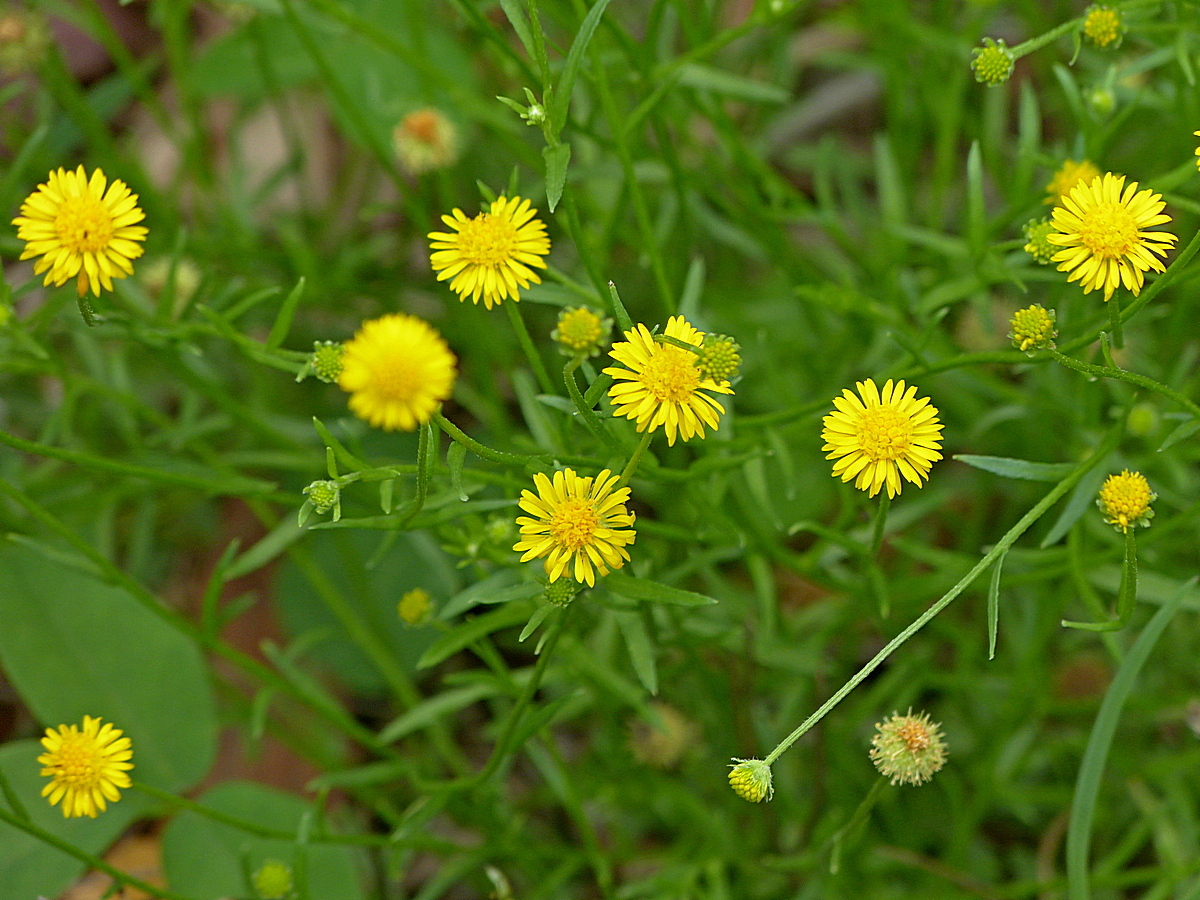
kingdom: Plantae
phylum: Tracheophyta
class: Magnoliopsida
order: Asterales
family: Asteraceae
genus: Calotis
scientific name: Calotis lappulacea
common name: Bur daisy
